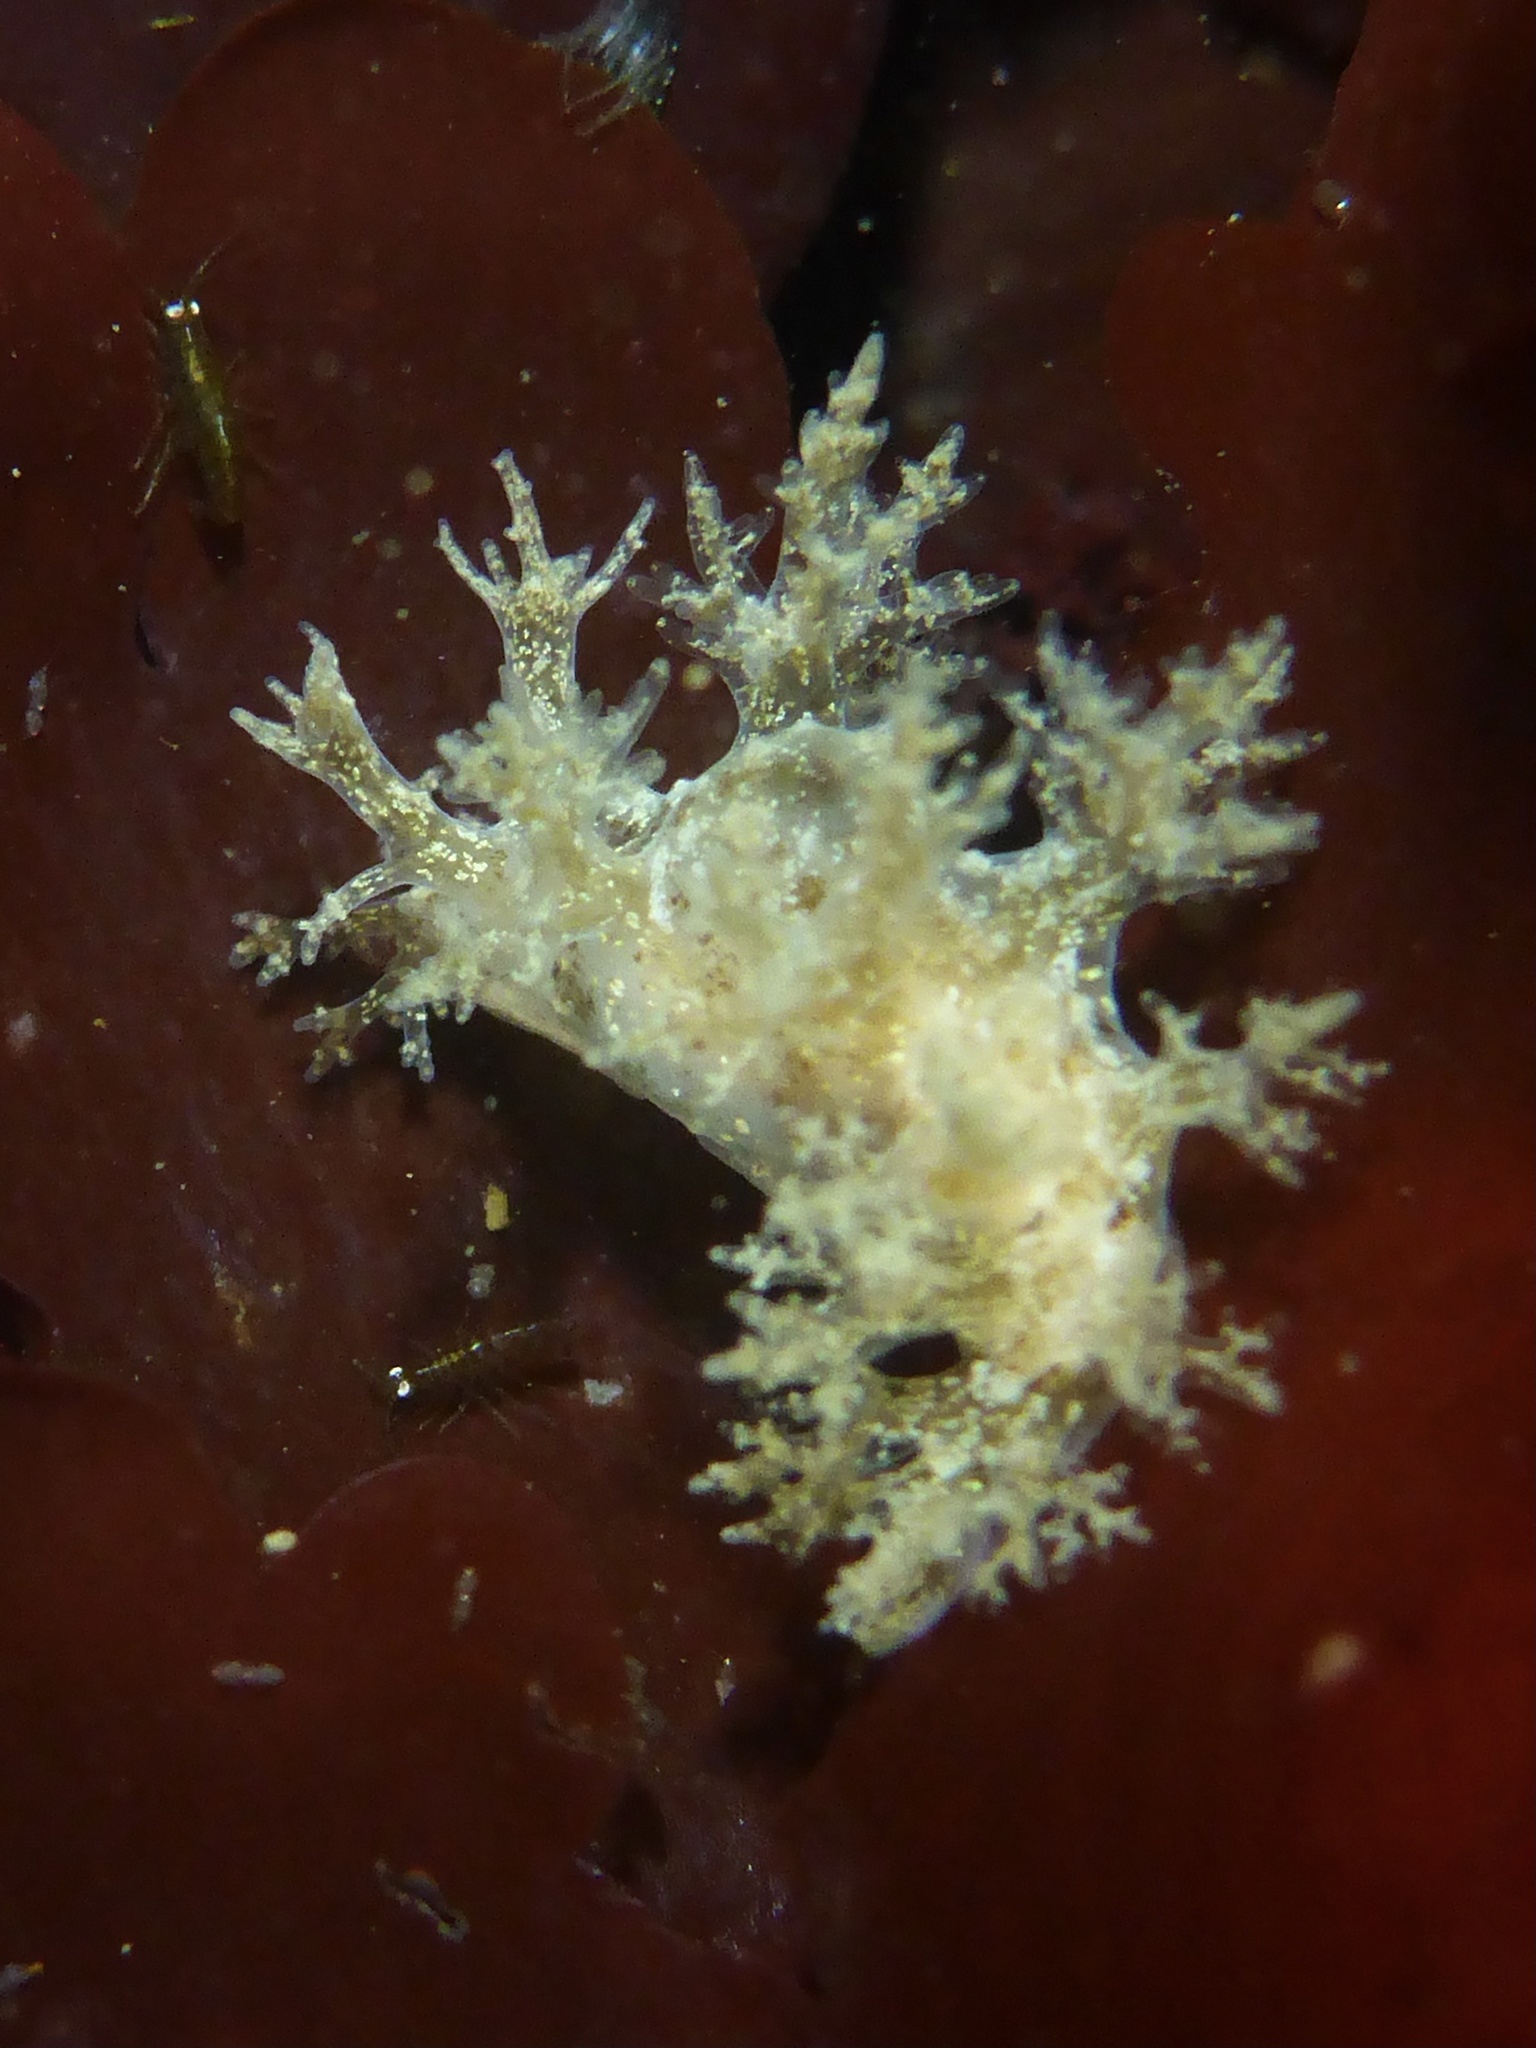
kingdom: Animalia
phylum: Mollusca
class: Gastropoda
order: Nudibranchia
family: Dendronotidae
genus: Dendronotus
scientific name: Dendronotus venustus
